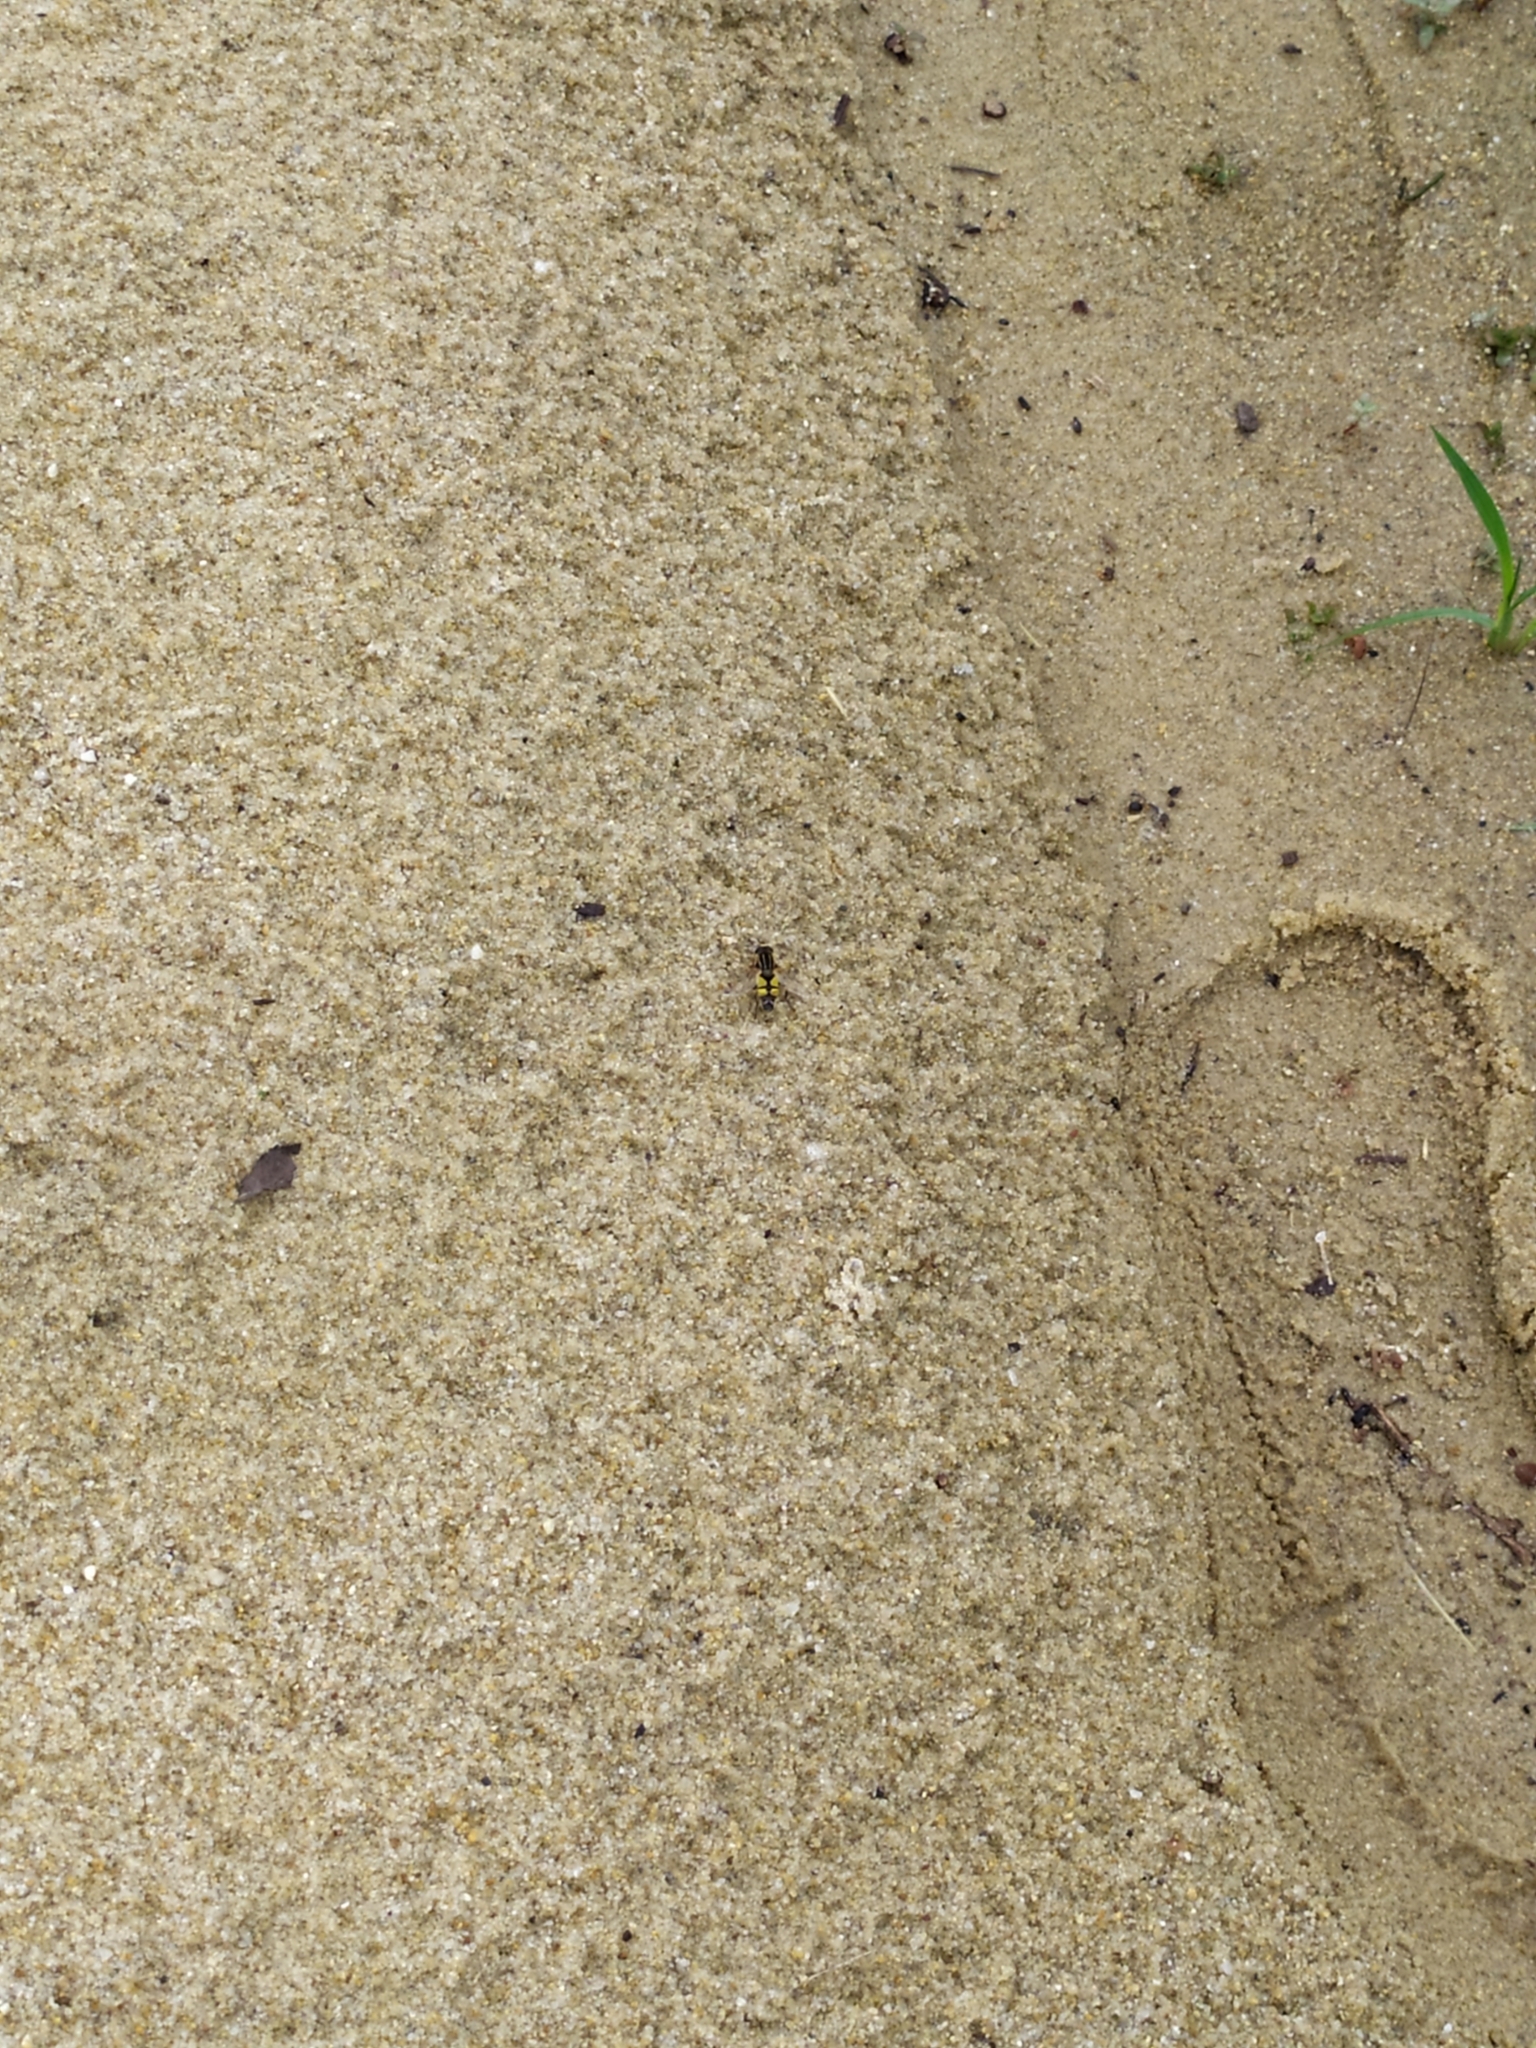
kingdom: Animalia
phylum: Arthropoda
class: Insecta
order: Diptera
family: Syrphidae
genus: Helophilus
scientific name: Helophilus trivittatus
